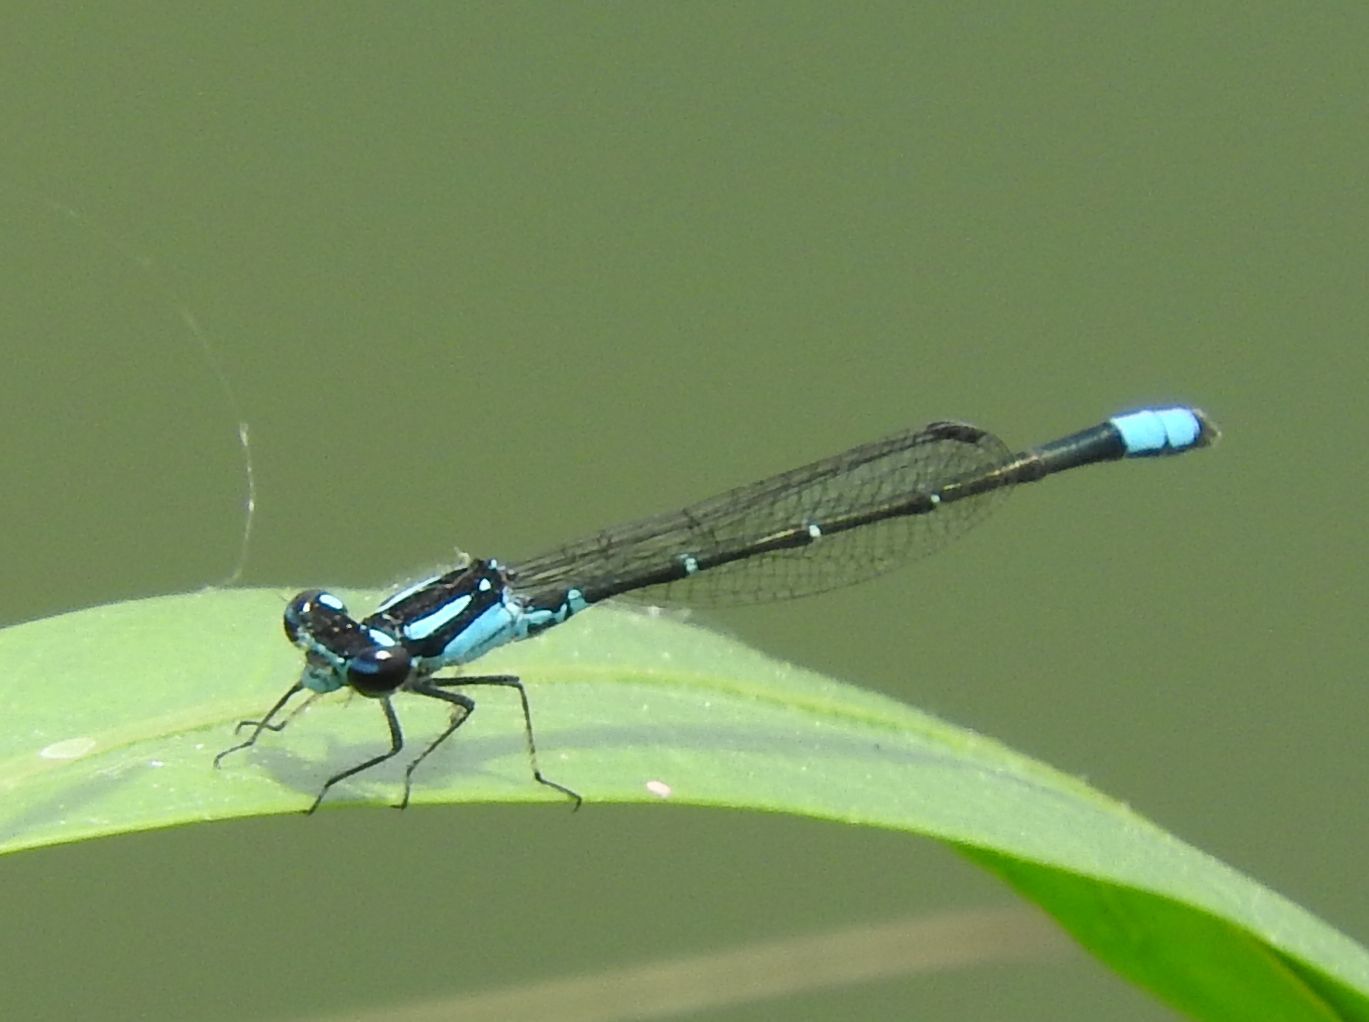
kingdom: Animalia
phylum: Arthropoda
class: Insecta
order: Odonata
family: Coenagrionidae
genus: Enallagma
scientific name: Enallagma geminatum
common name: Skimming bluet
